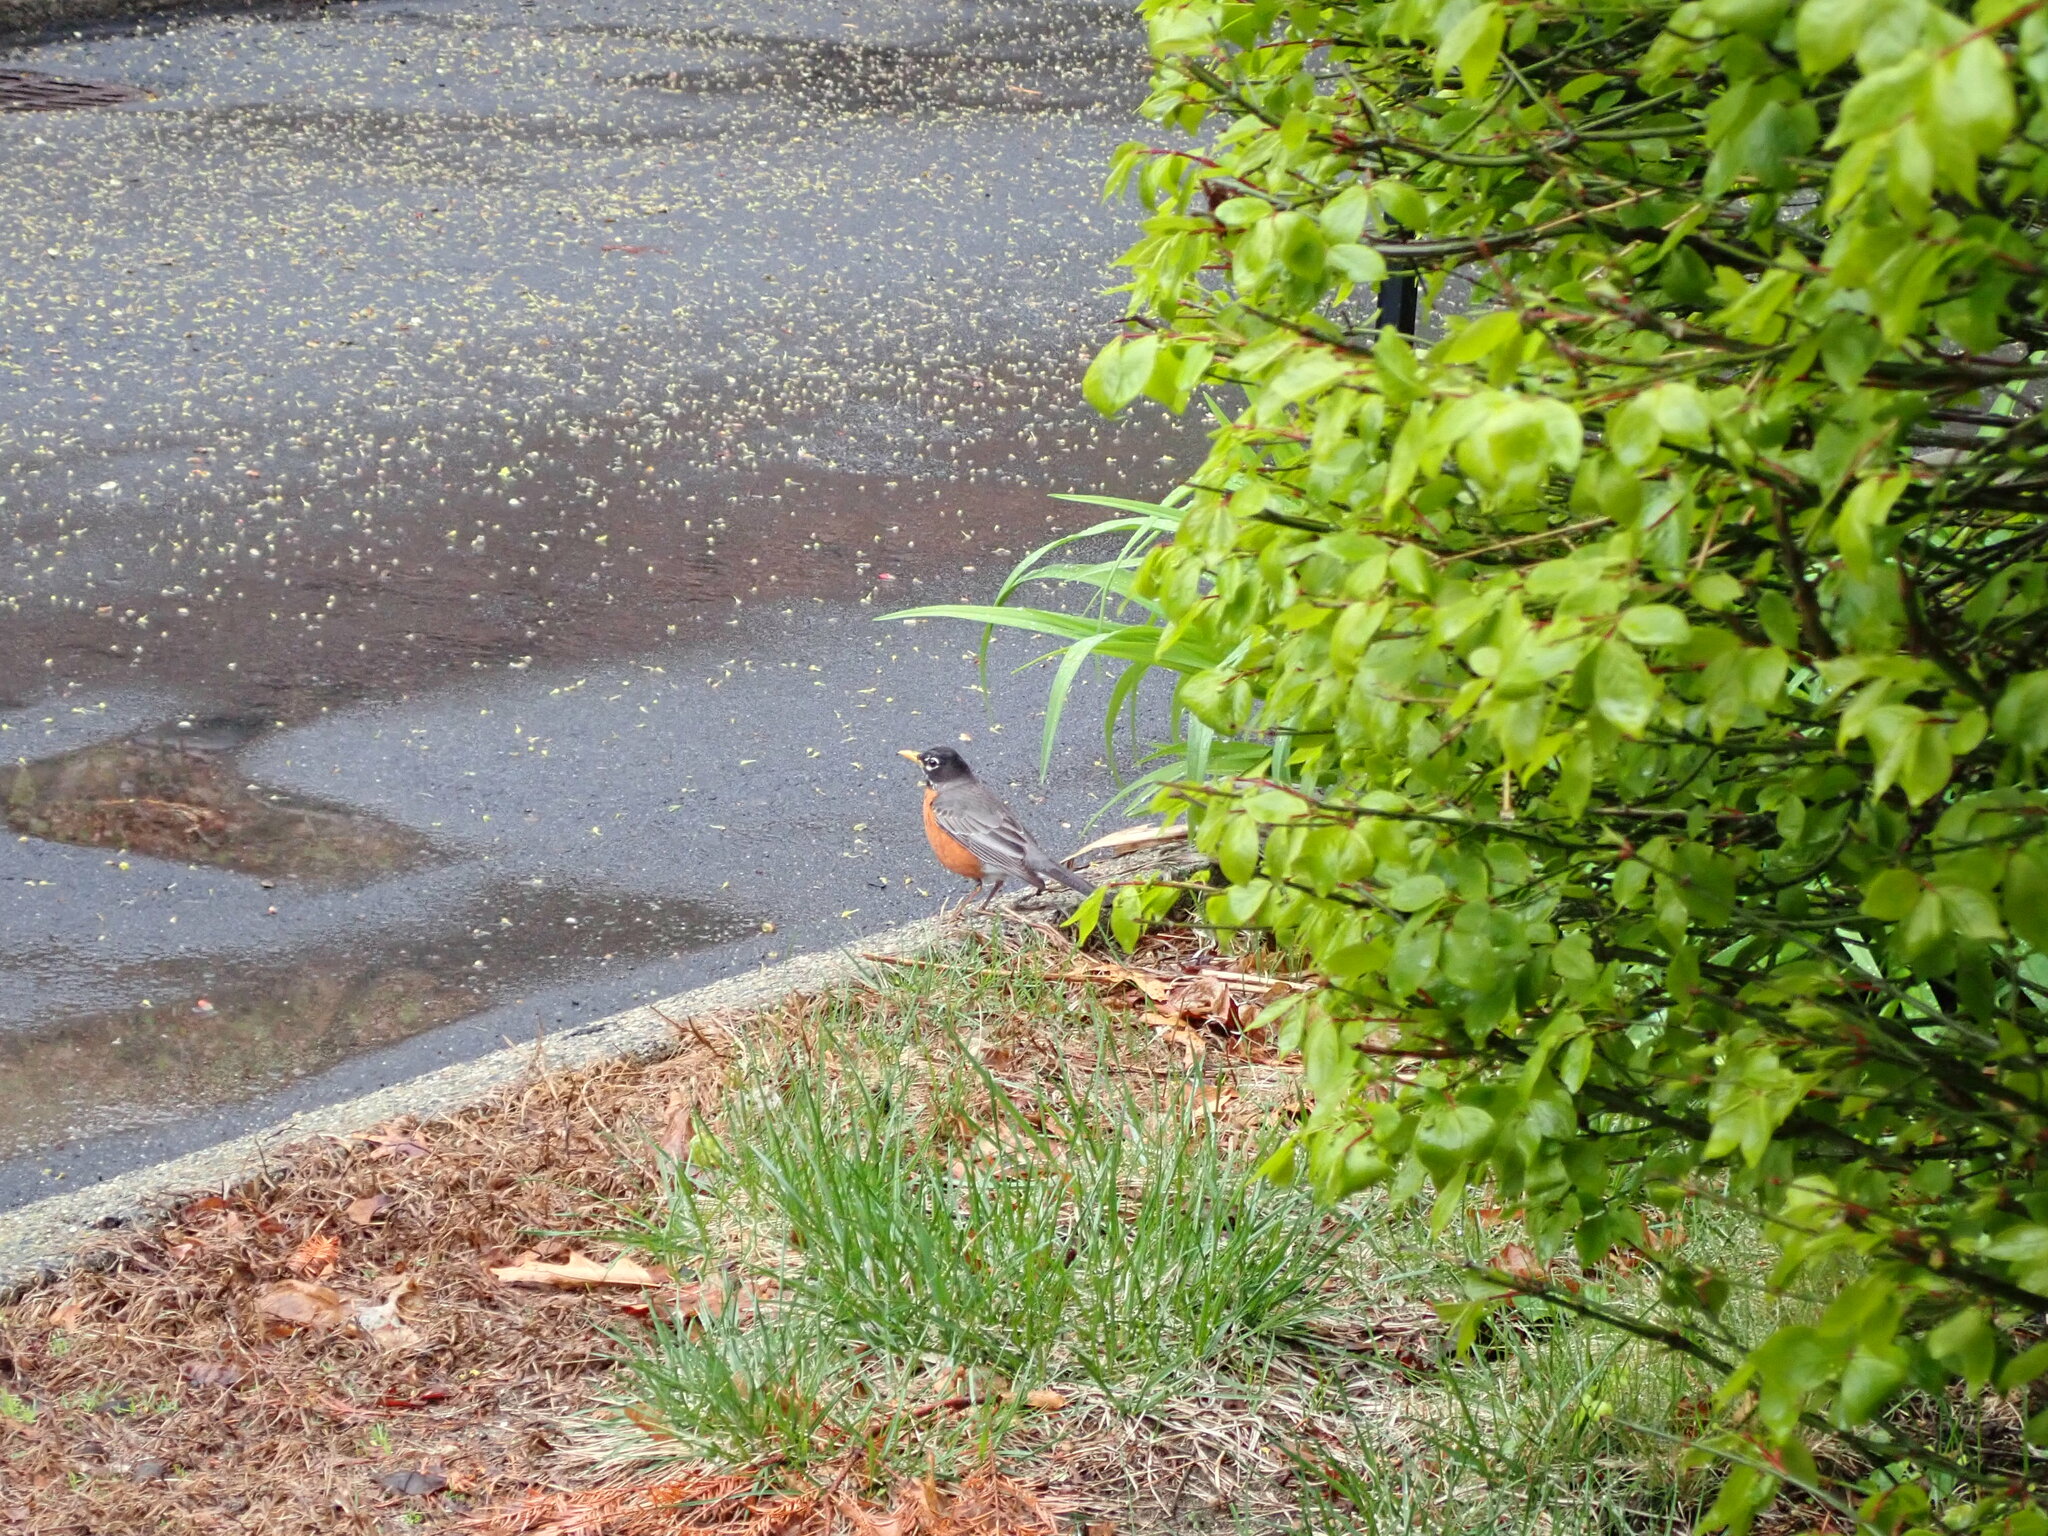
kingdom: Animalia
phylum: Chordata
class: Aves
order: Passeriformes
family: Turdidae
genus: Turdus
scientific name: Turdus migratorius
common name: American robin
